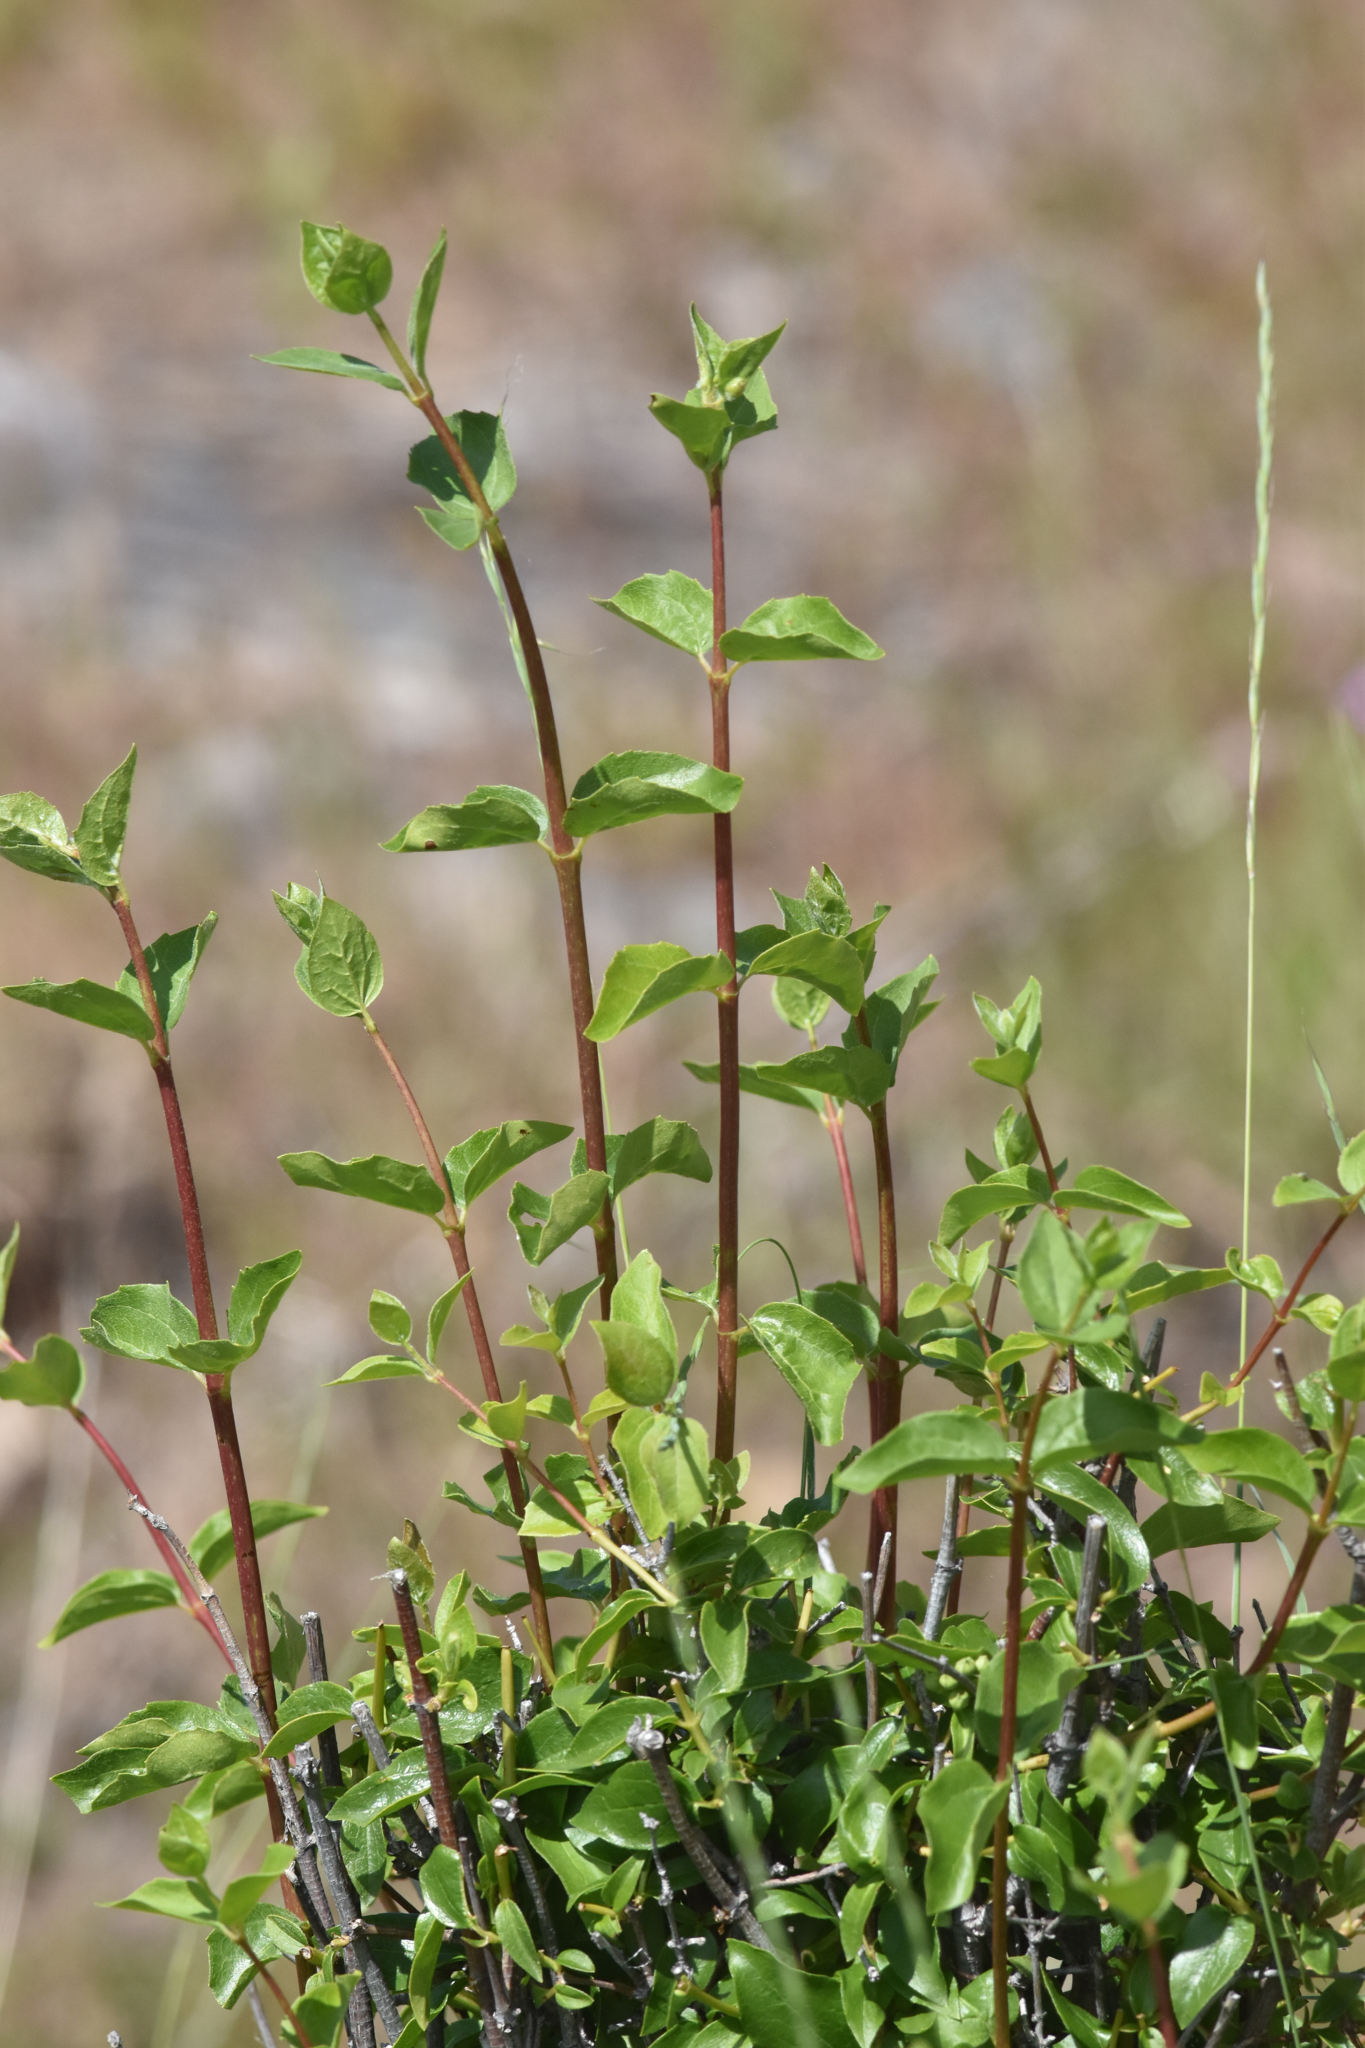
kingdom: Plantae
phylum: Tracheophyta
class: Magnoliopsida
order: Cornales
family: Hydrangeaceae
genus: Philadelphus
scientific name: Philadelphus lewisii
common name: Lewis's mock orange
